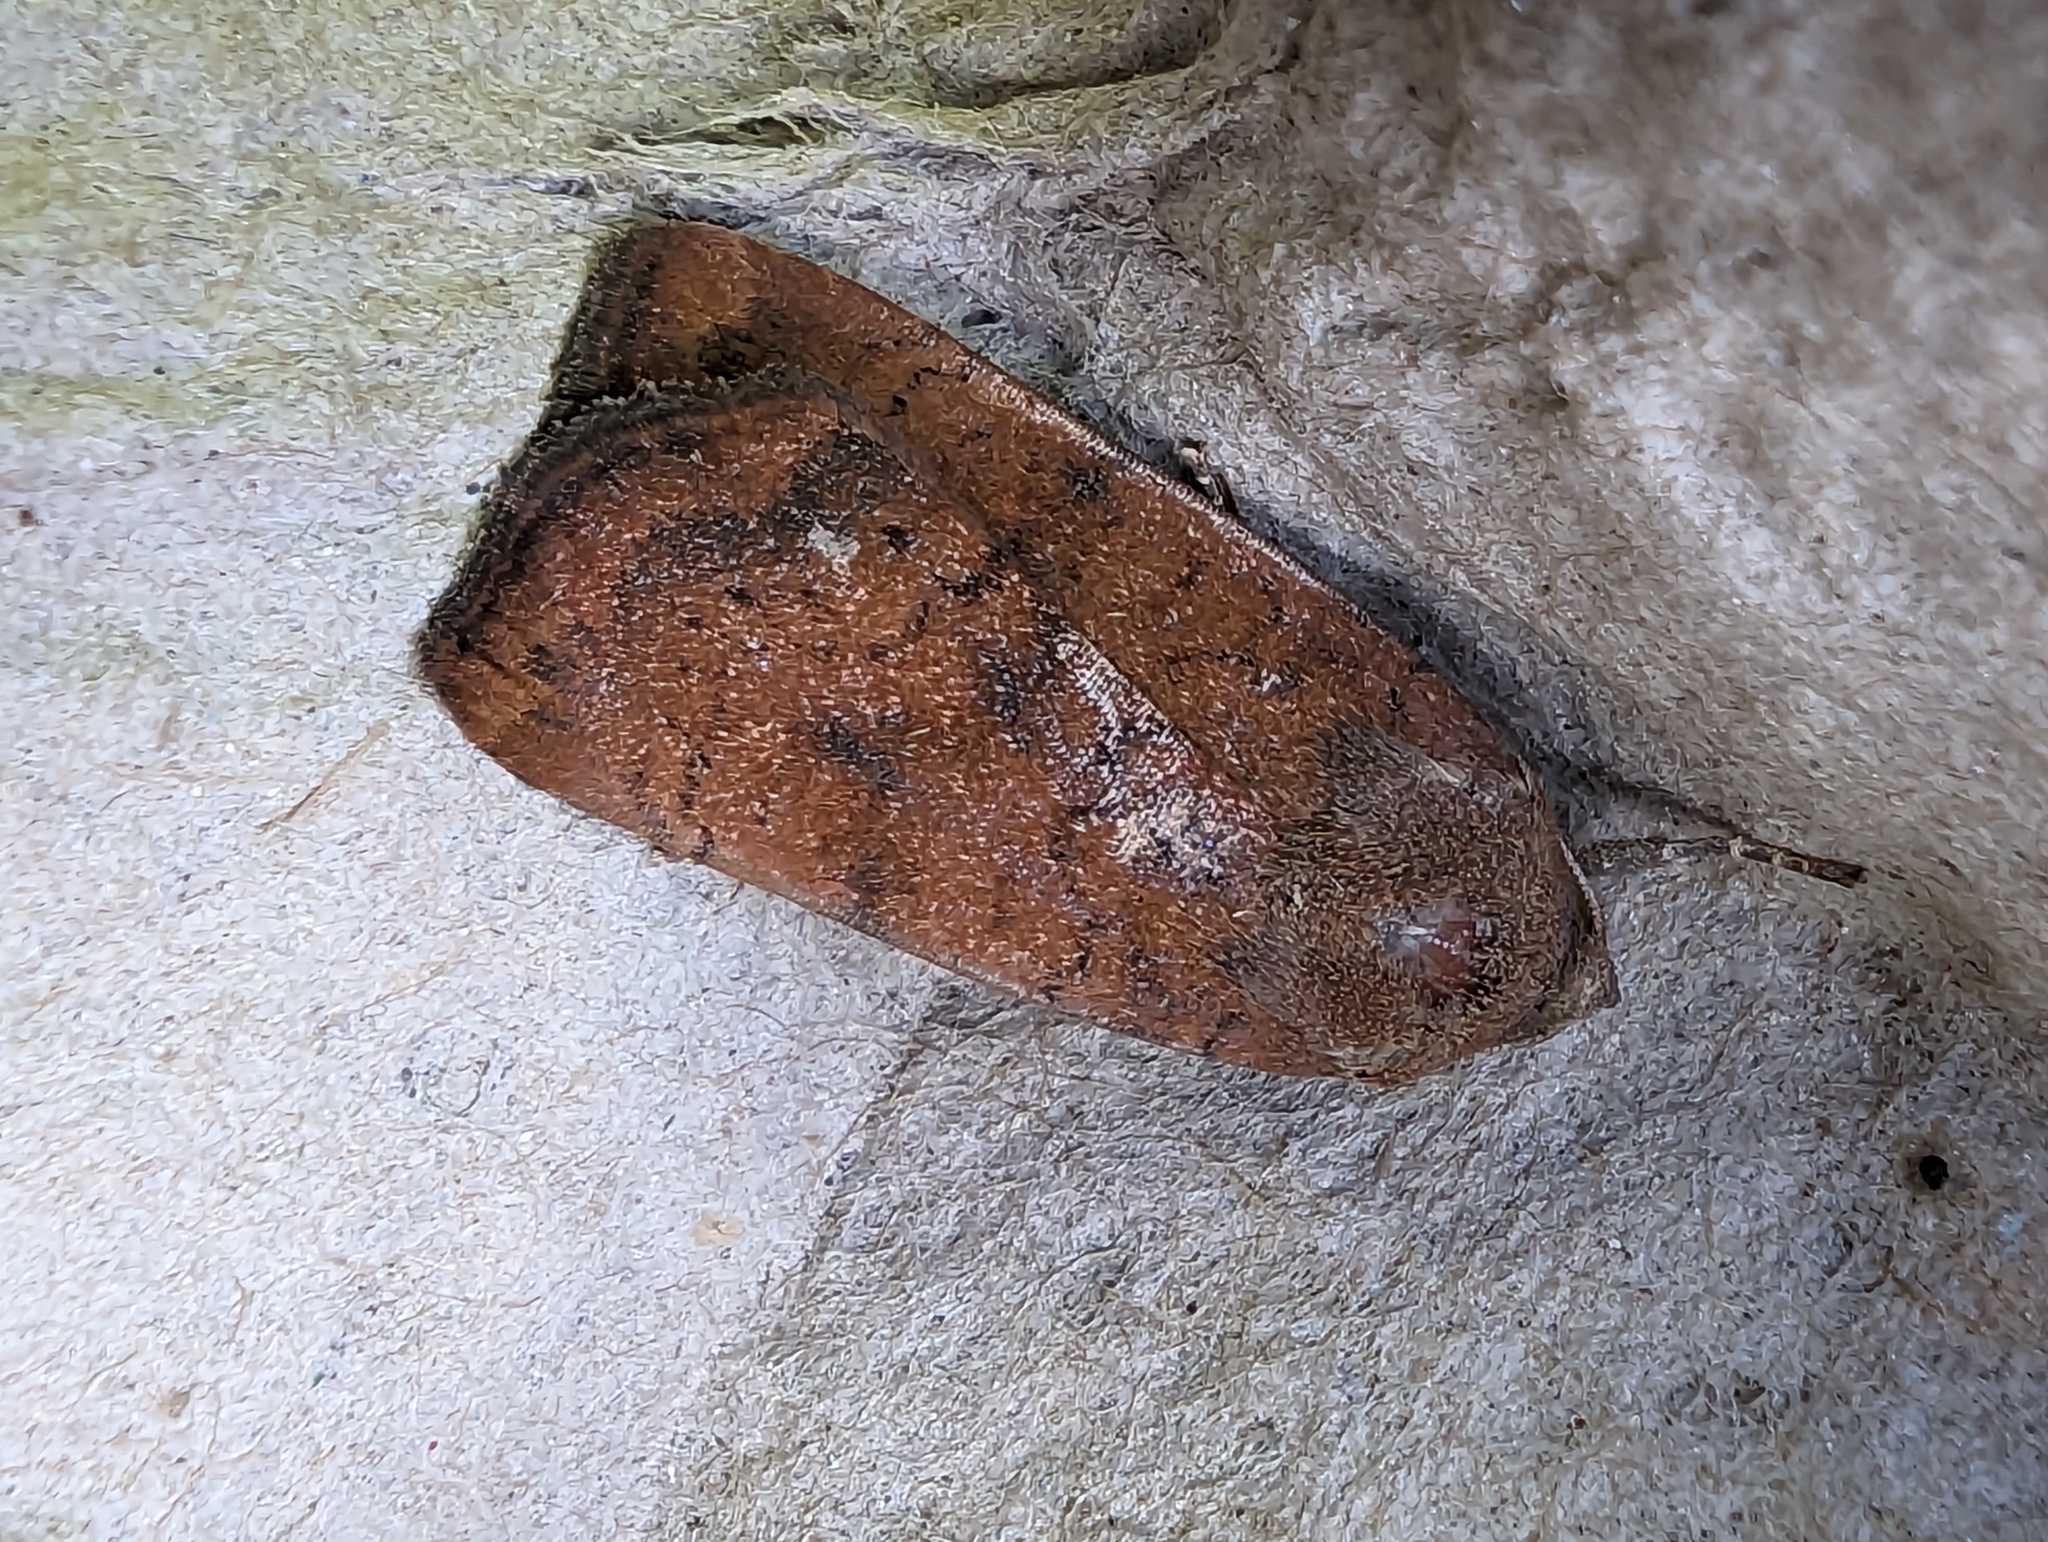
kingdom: Animalia
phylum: Arthropoda
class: Insecta
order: Lepidoptera
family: Noctuidae
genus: Noctua
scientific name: Noctua interjecta
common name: Least yellow underwing
